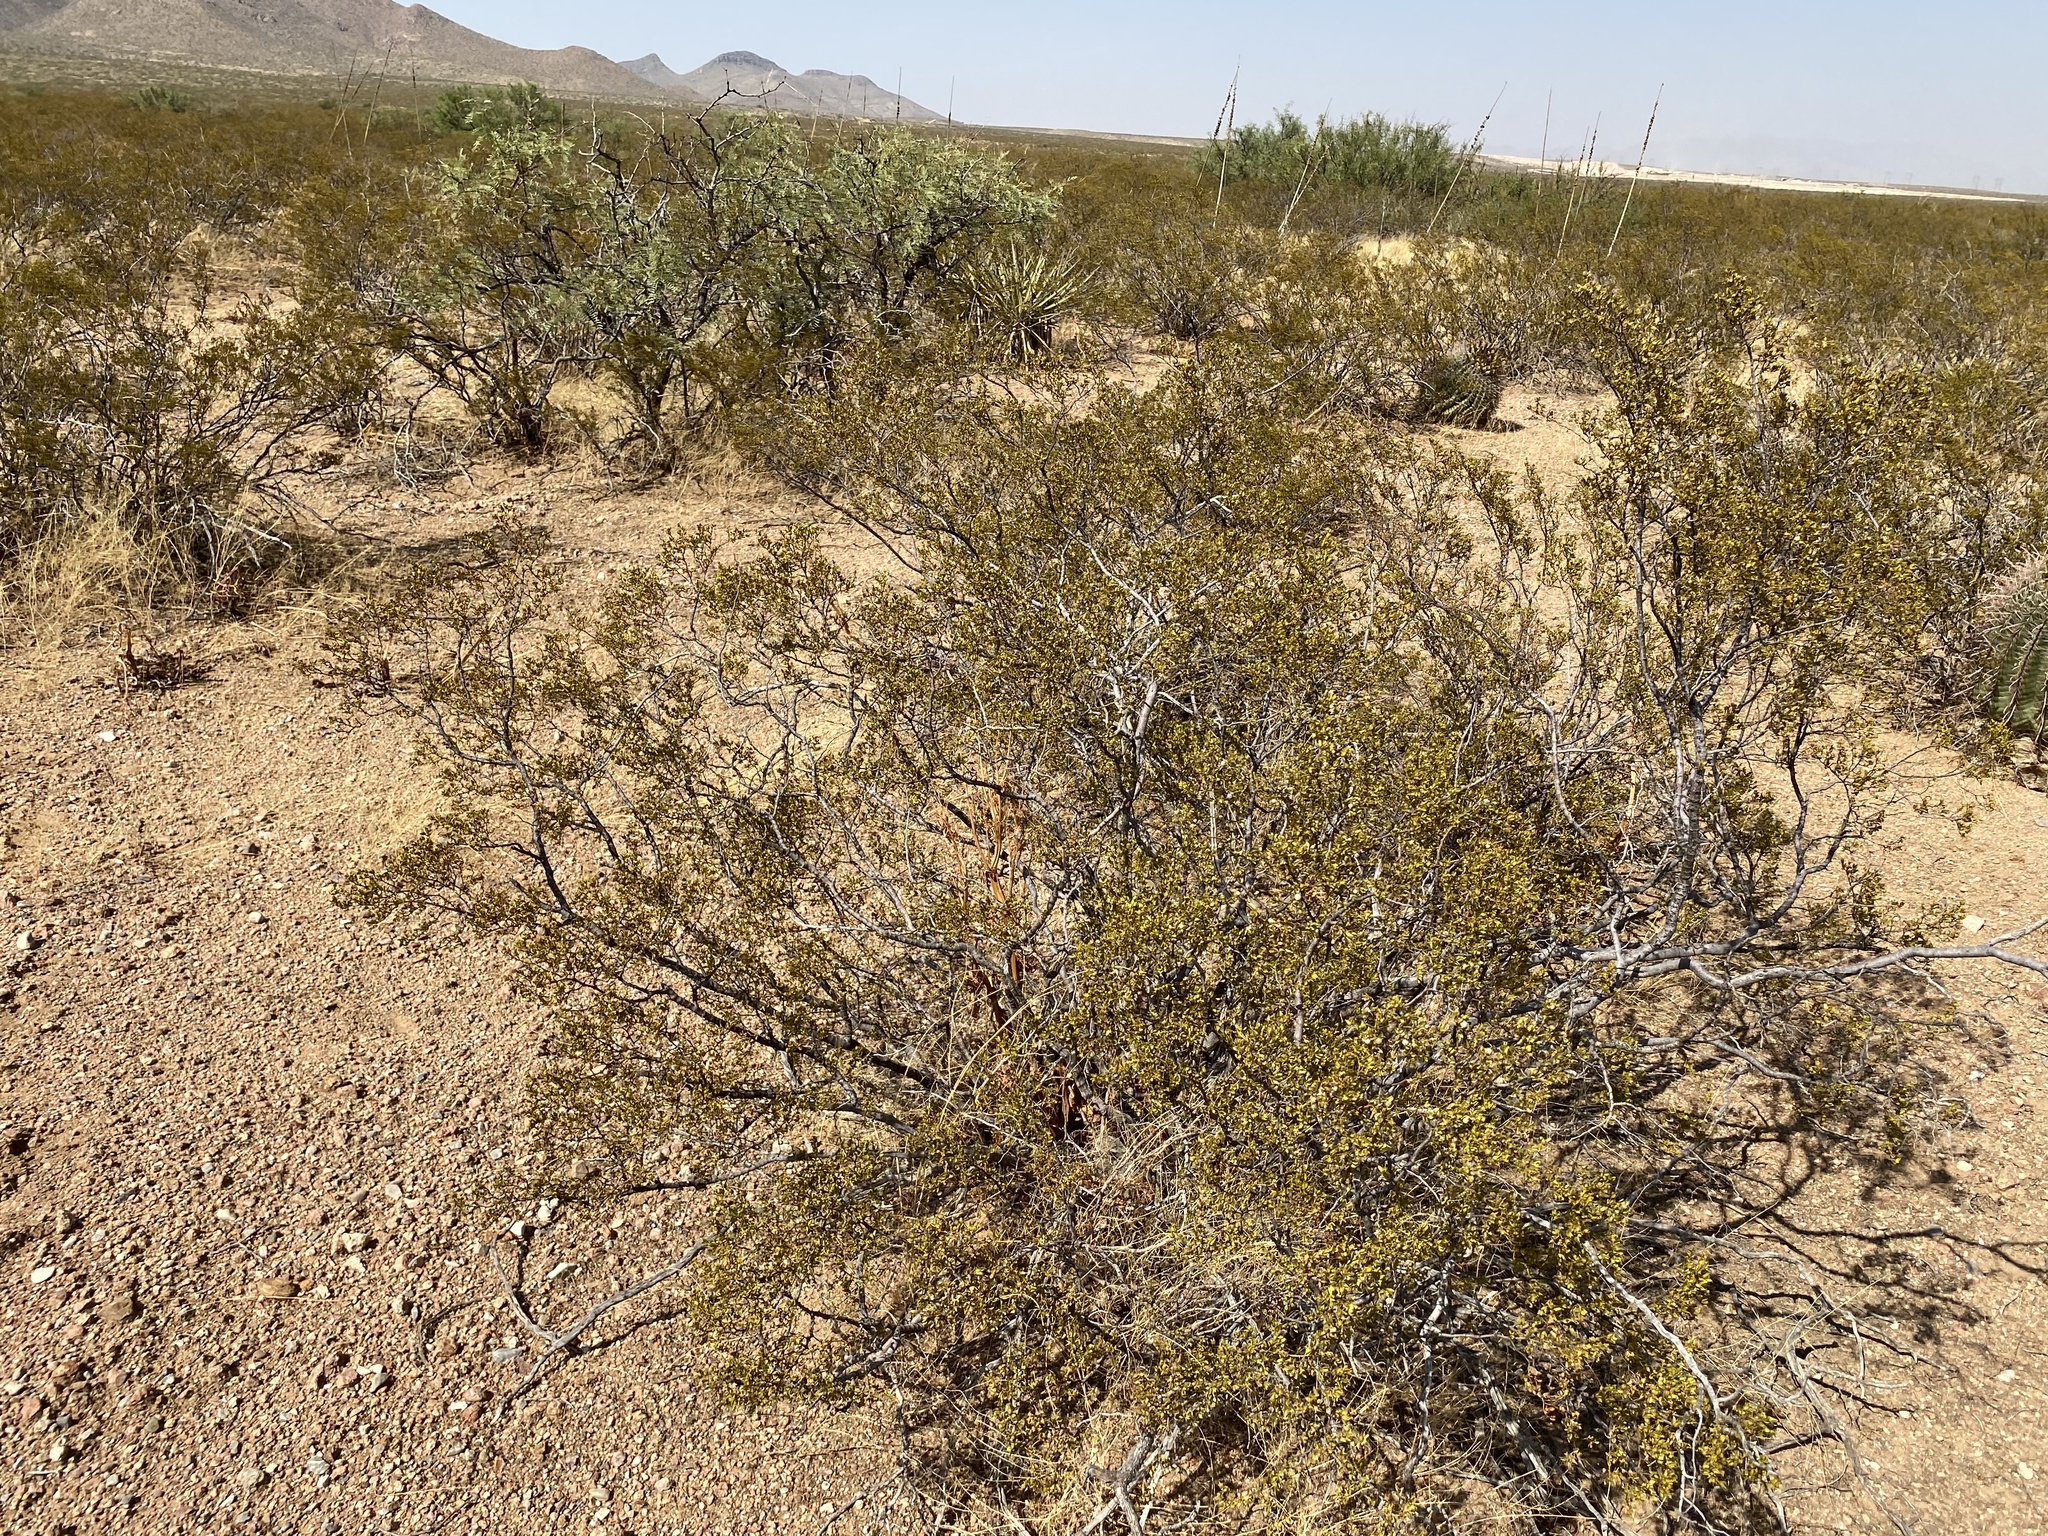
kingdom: Plantae
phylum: Tracheophyta
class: Magnoliopsida
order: Zygophyllales
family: Zygophyllaceae
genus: Larrea
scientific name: Larrea tridentata
